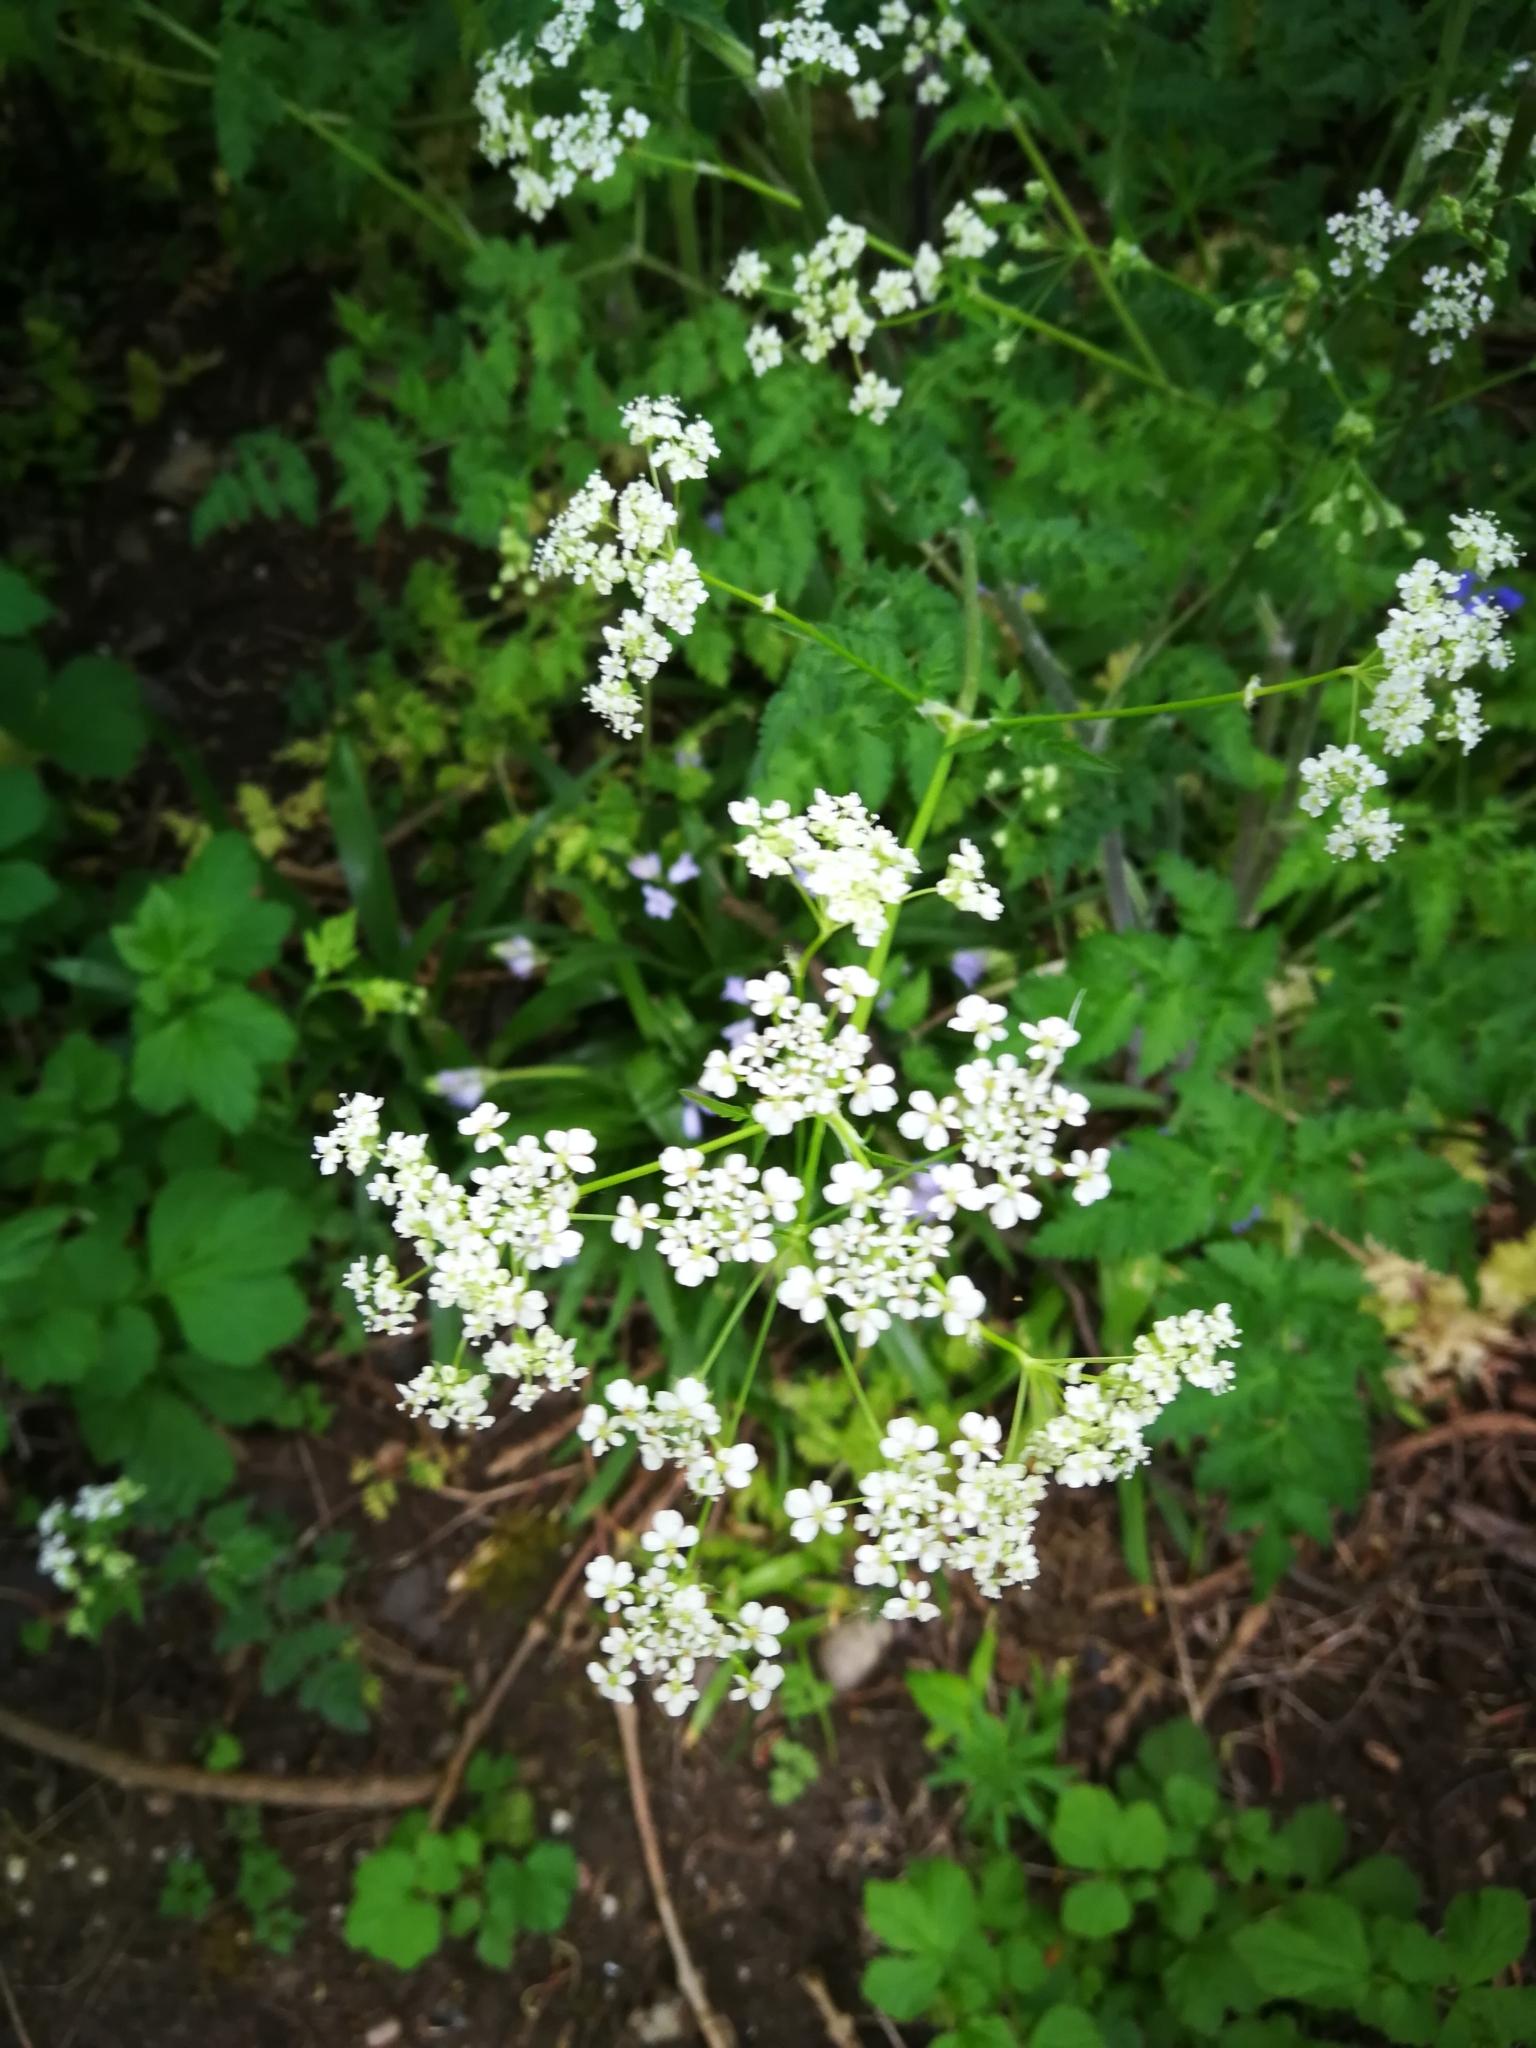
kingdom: Plantae
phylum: Tracheophyta
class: Magnoliopsida
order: Apiales
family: Apiaceae
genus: Anthriscus
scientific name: Anthriscus sylvestris
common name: Cow parsley
